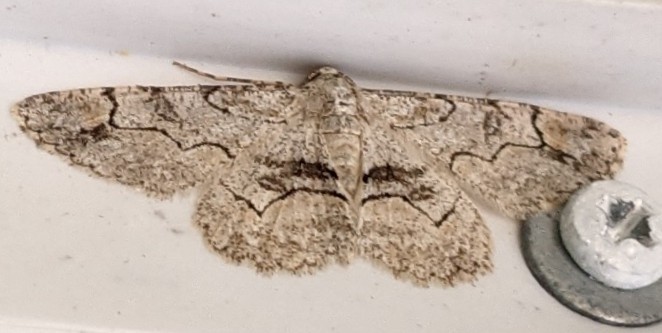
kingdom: Animalia
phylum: Arthropoda
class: Insecta
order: Lepidoptera
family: Geometridae
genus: Iridopsis
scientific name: Iridopsis larvaria
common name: Bent-line gray
